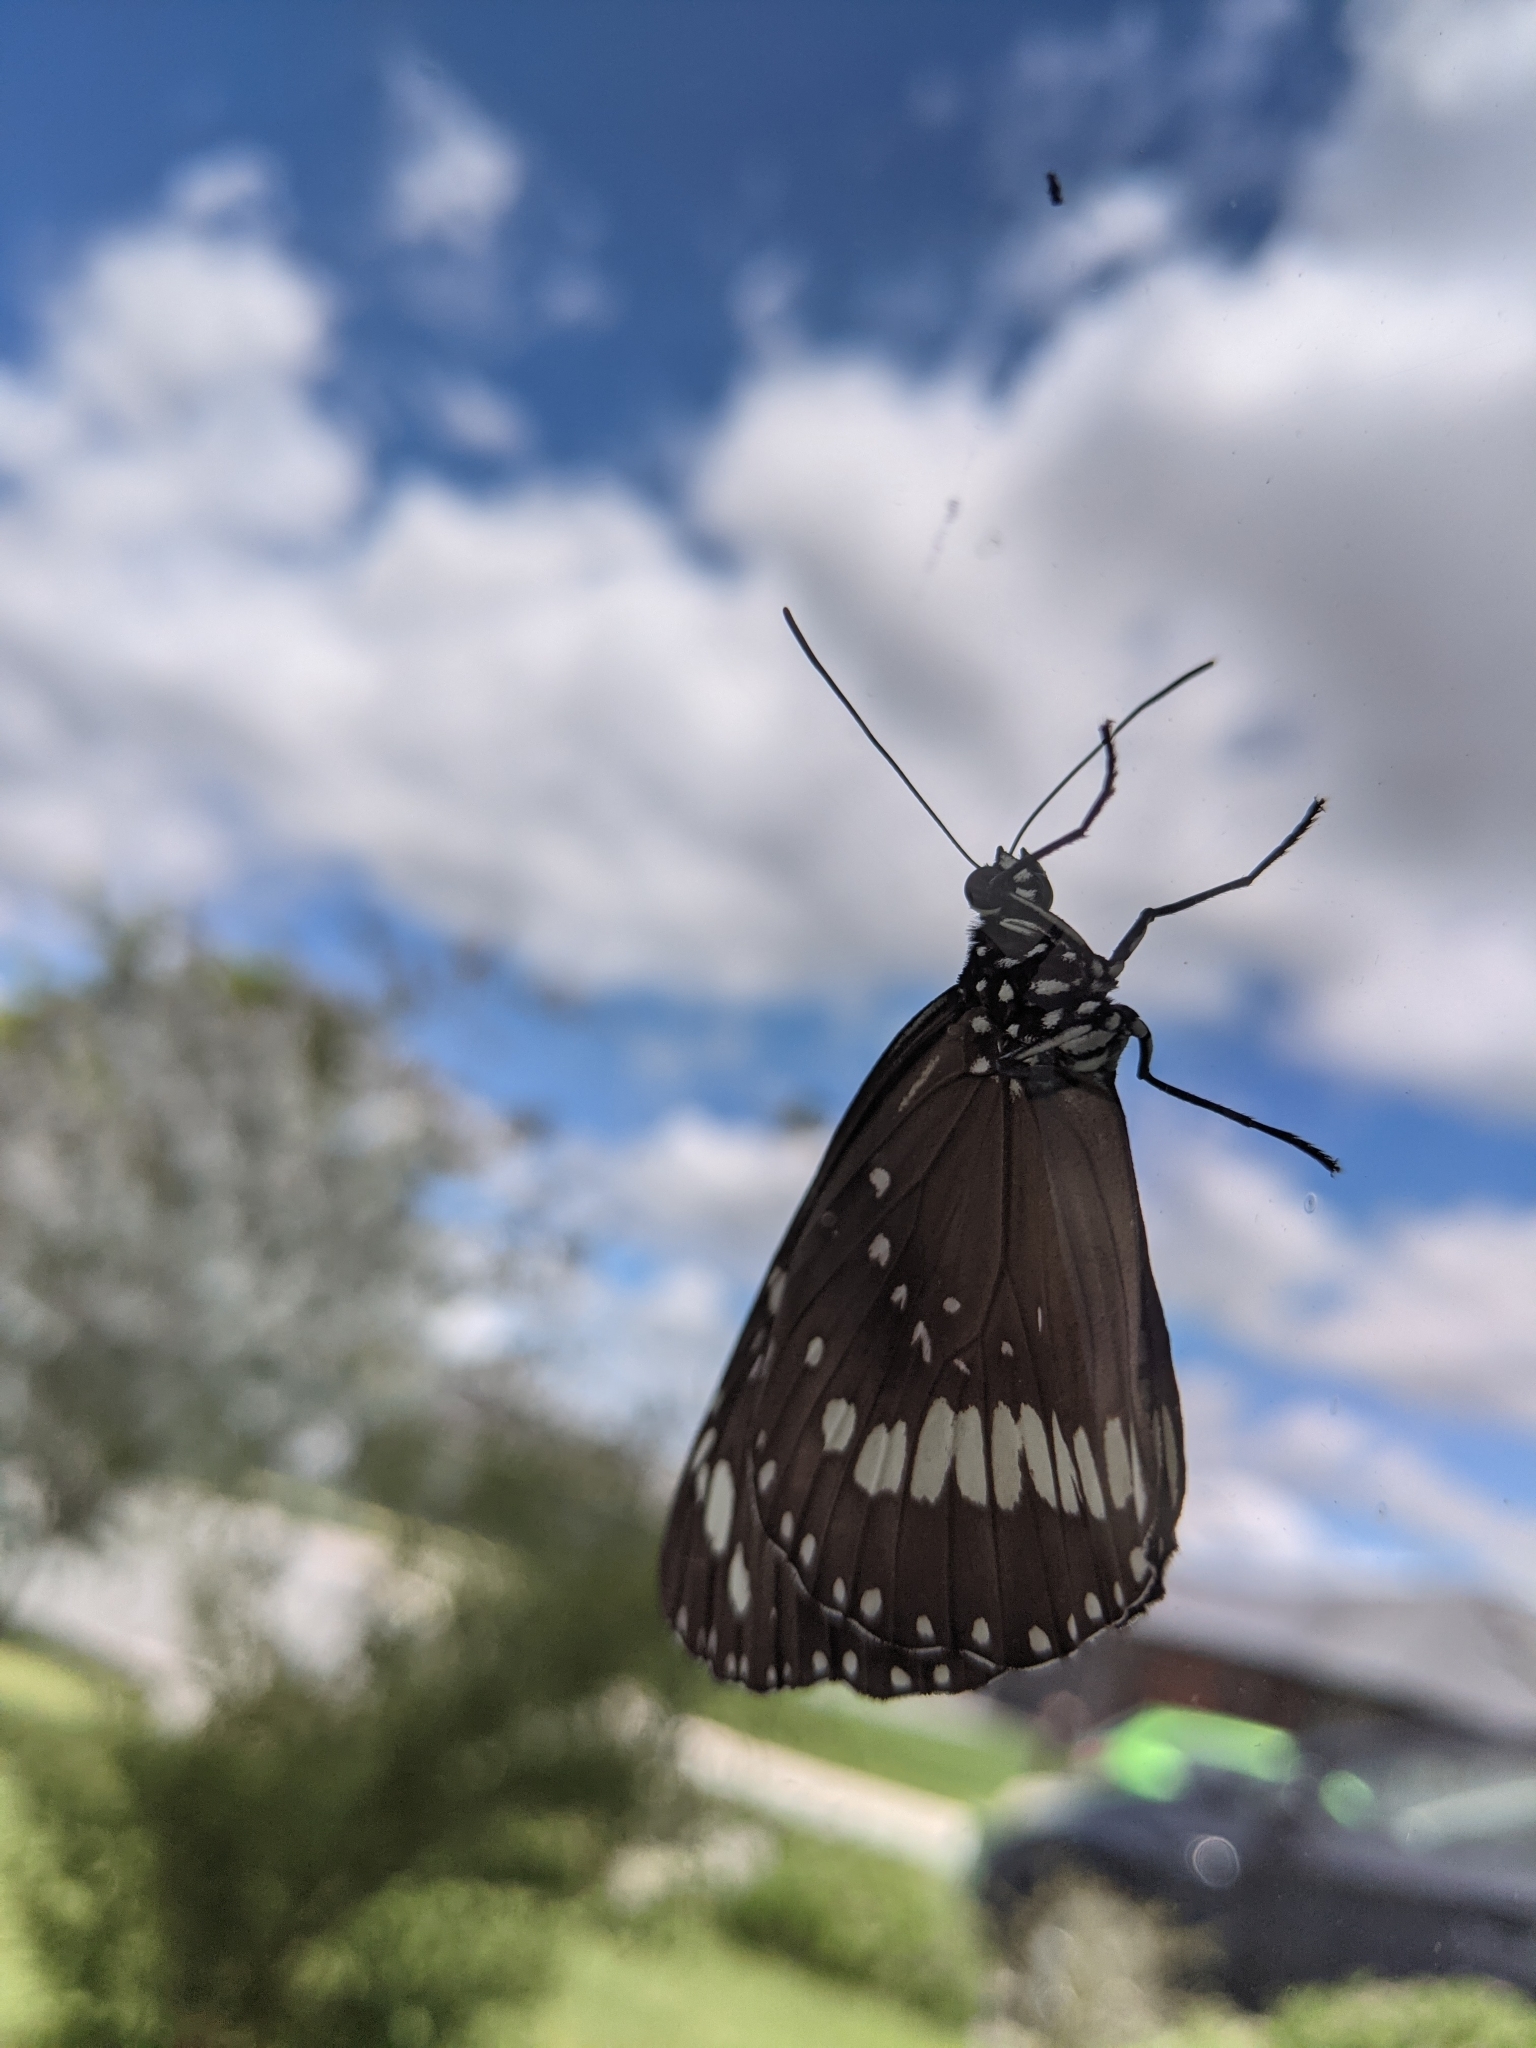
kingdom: Animalia
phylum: Arthropoda
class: Insecta
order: Lepidoptera
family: Nymphalidae
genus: Euploea
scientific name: Euploea core
